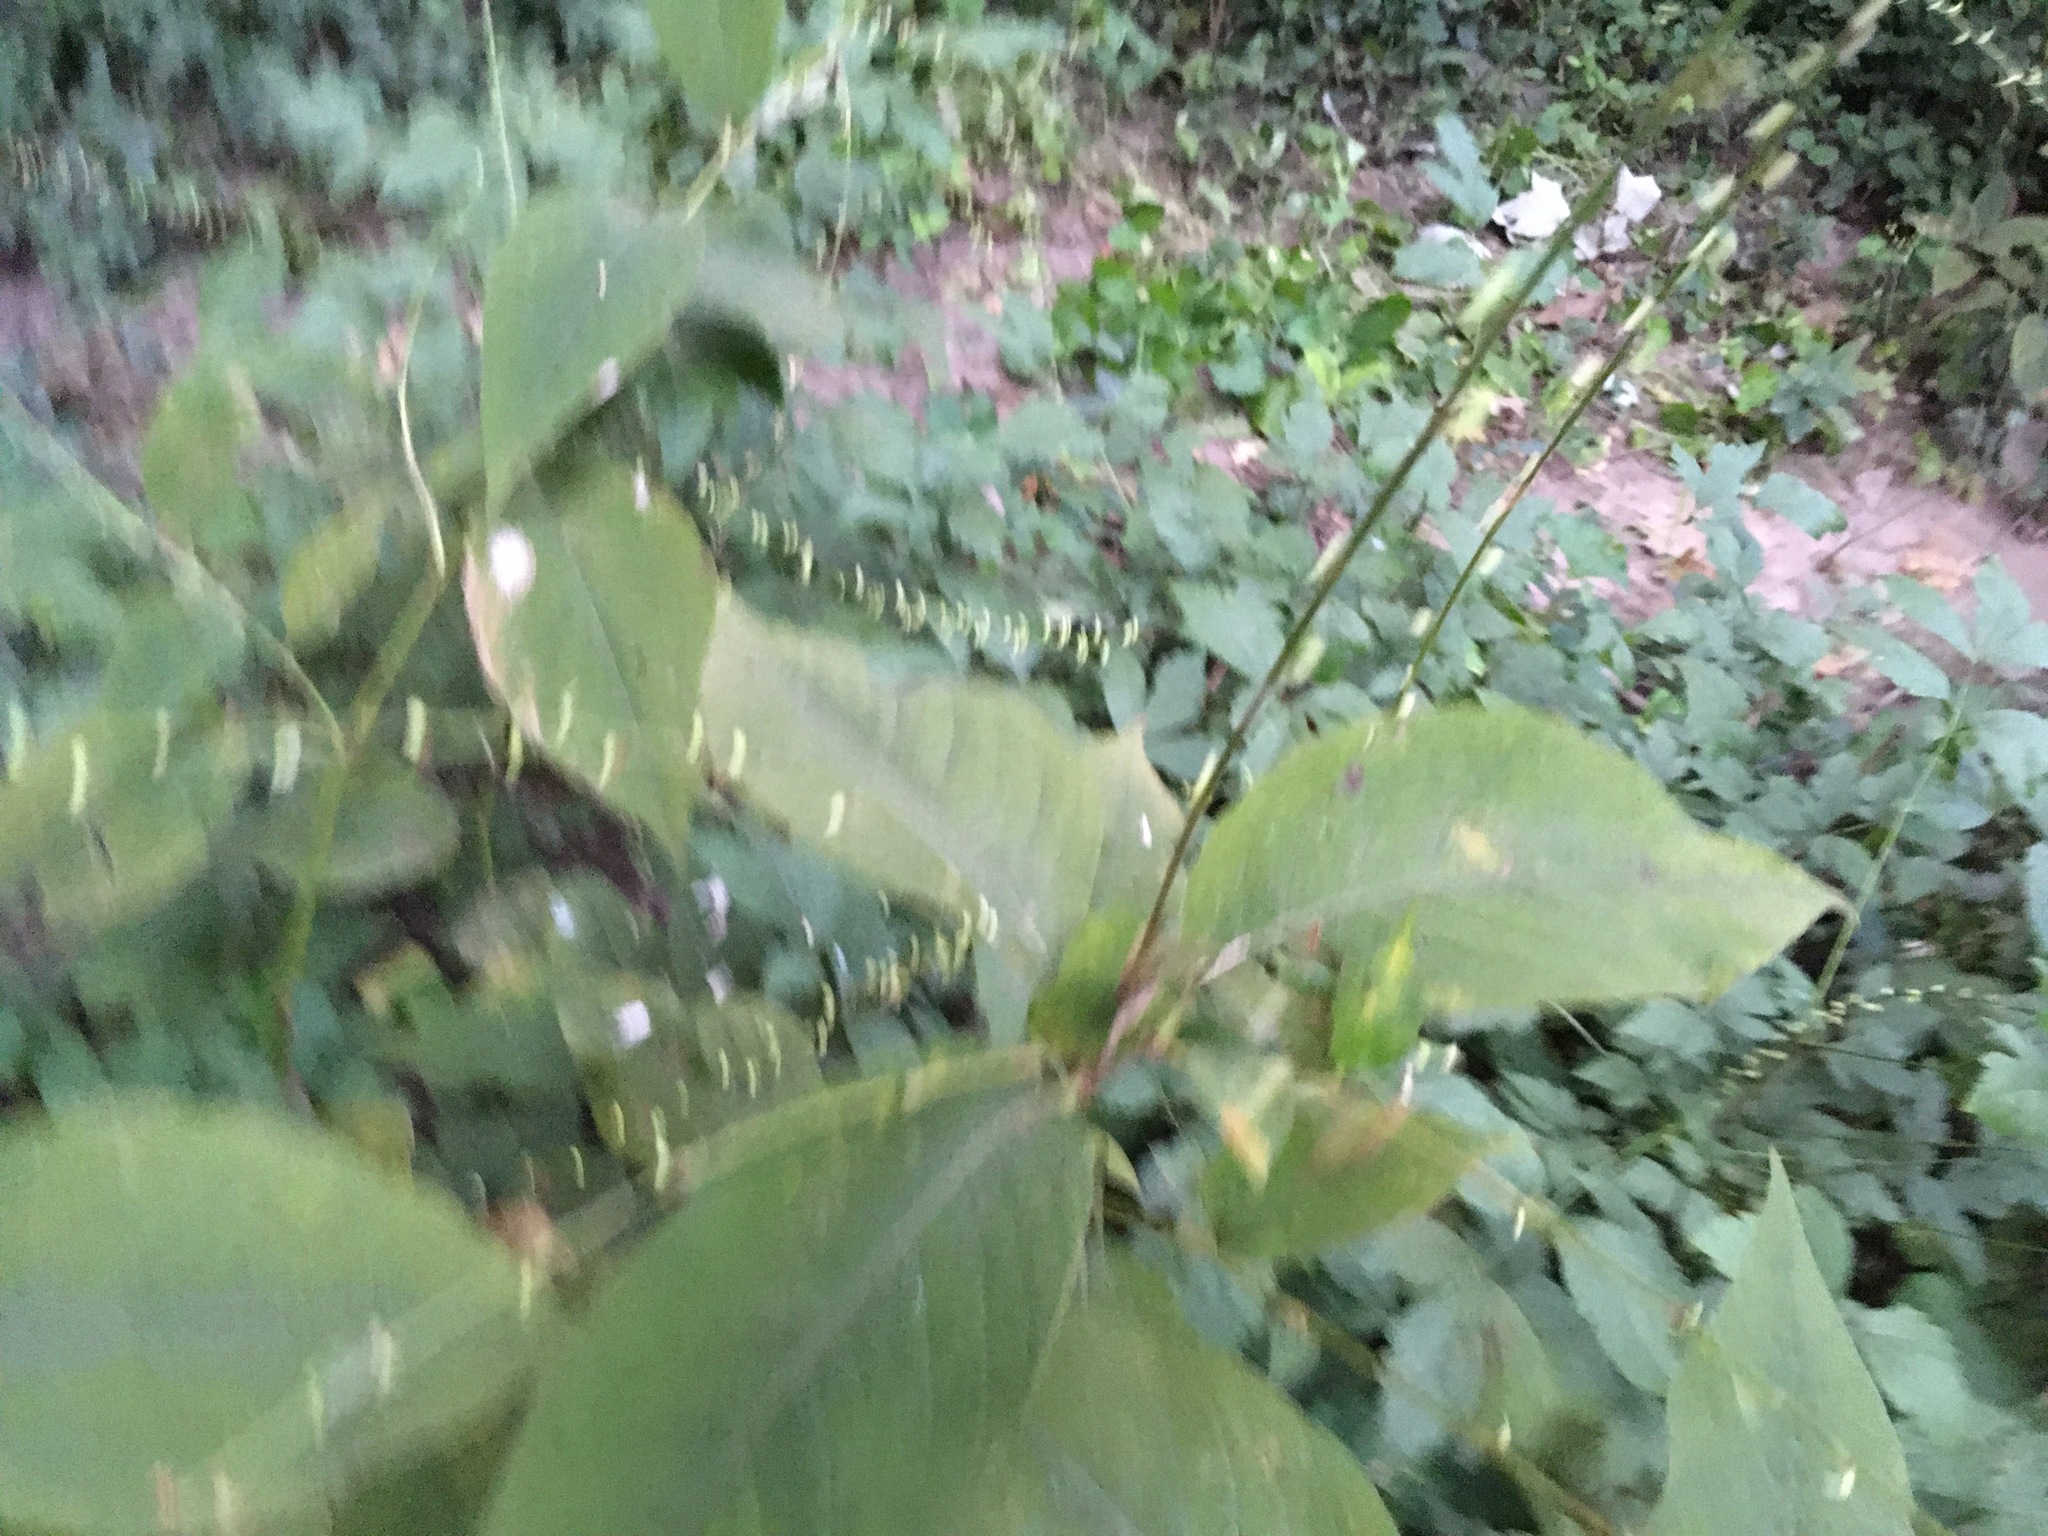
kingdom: Plantae
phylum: Tracheophyta
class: Magnoliopsida
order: Caryophyllales
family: Polygonaceae
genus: Persicaria
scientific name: Persicaria virginiana
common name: Jumpseed
